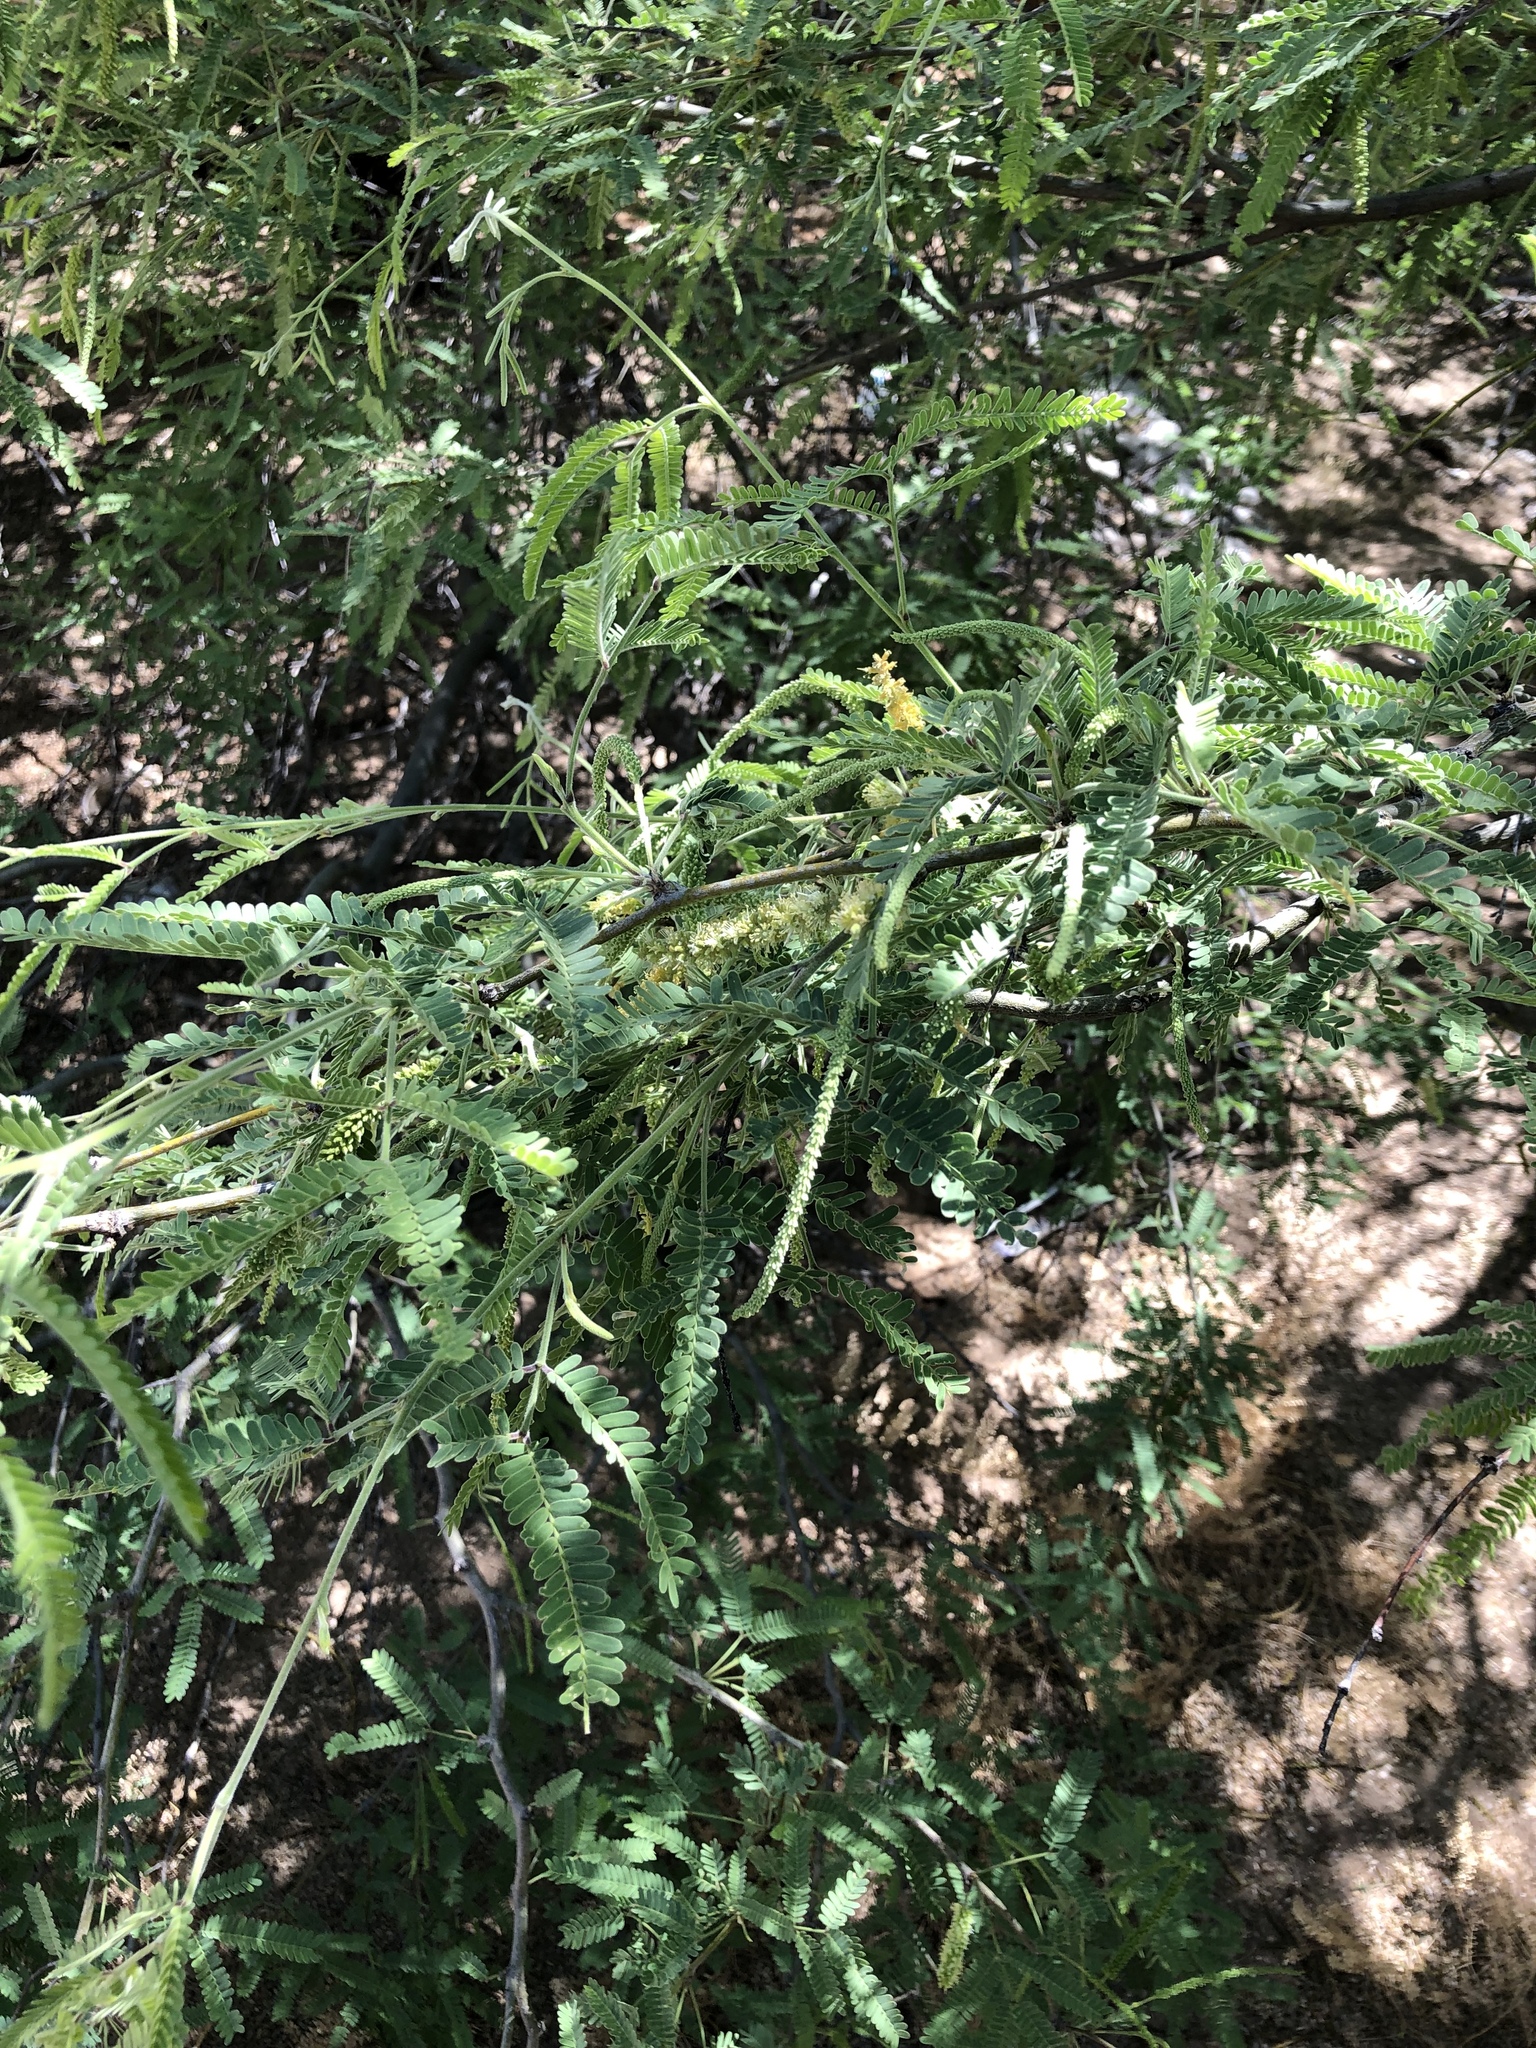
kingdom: Plantae
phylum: Tracheophyta
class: Magnoliopsida
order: Fabales
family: Fabaceae
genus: Prosopis
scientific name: Prosopis velutina
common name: Velvet mesquite
